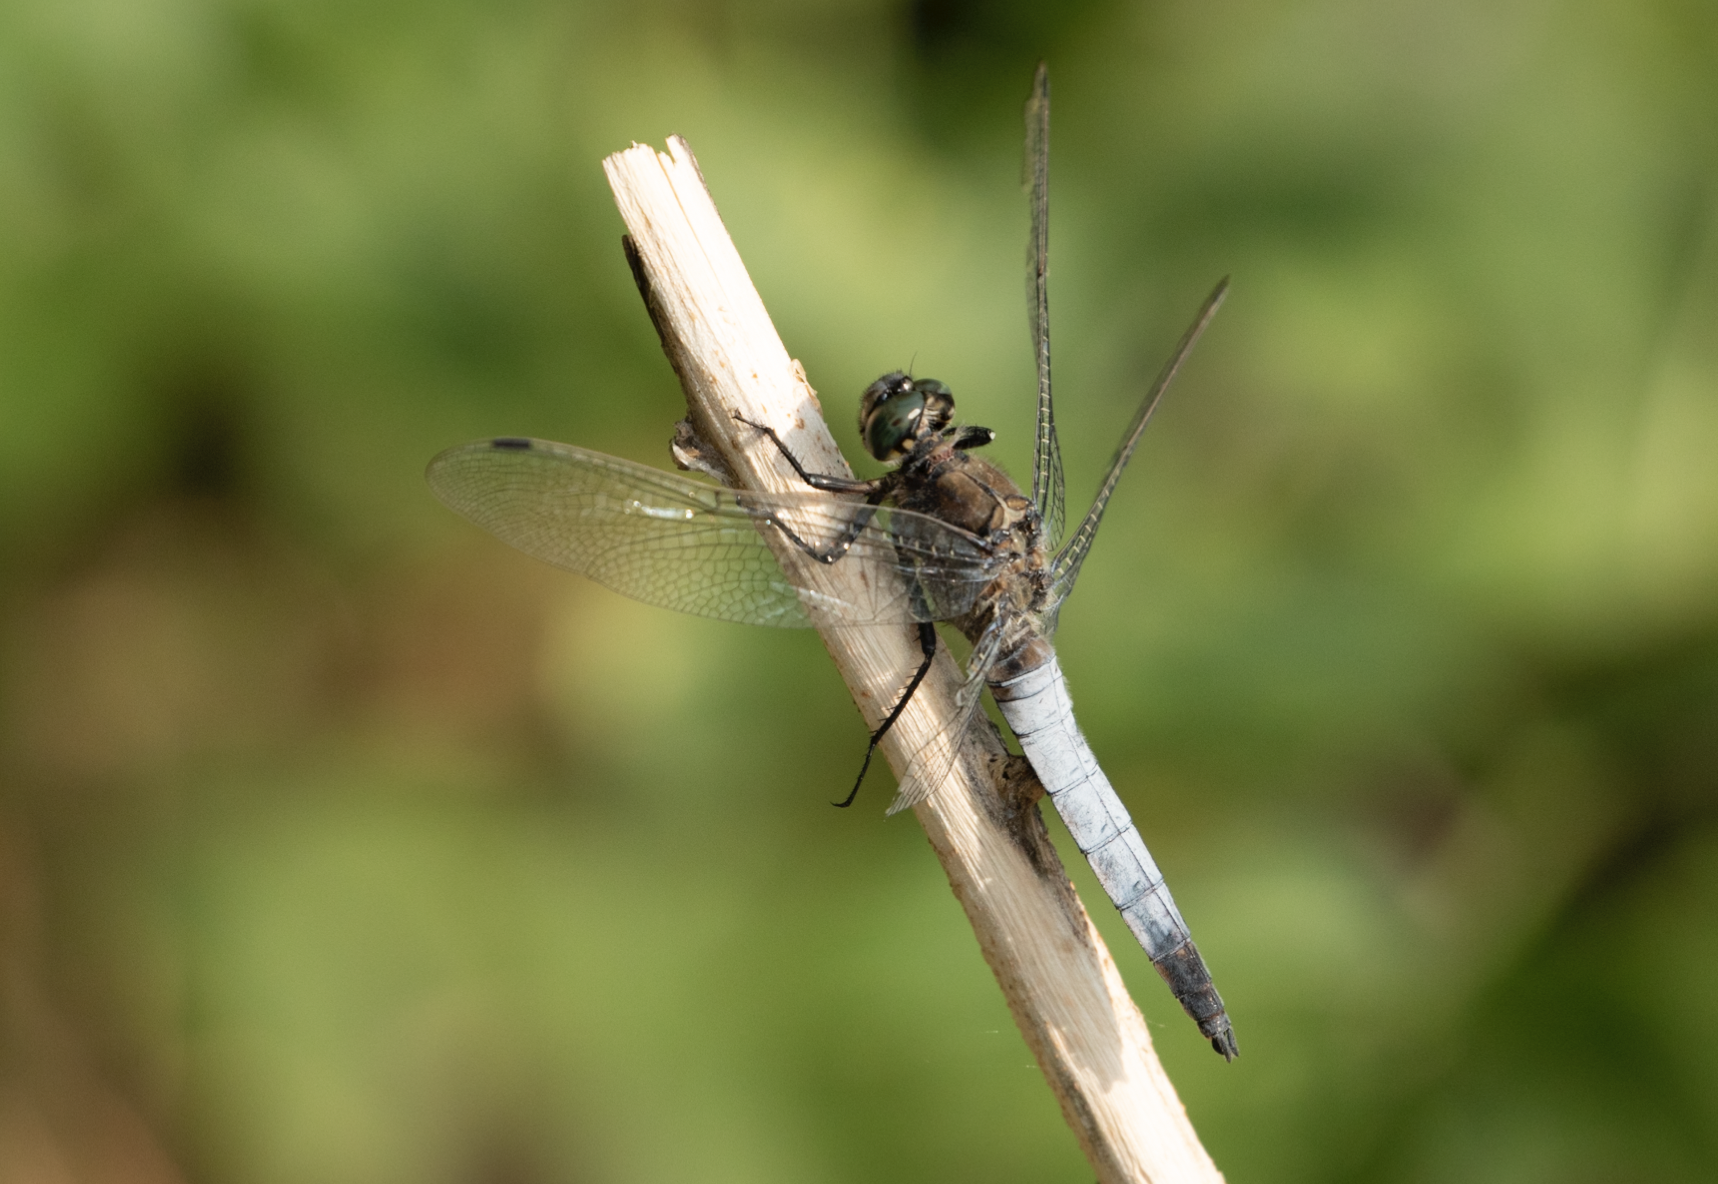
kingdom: Animalia
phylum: Arthropoda
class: Insecta
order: Odonata
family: Libellulidae
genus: Orthetrum
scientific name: Orthetrum cancellatum
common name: Black-tailed skimmer
